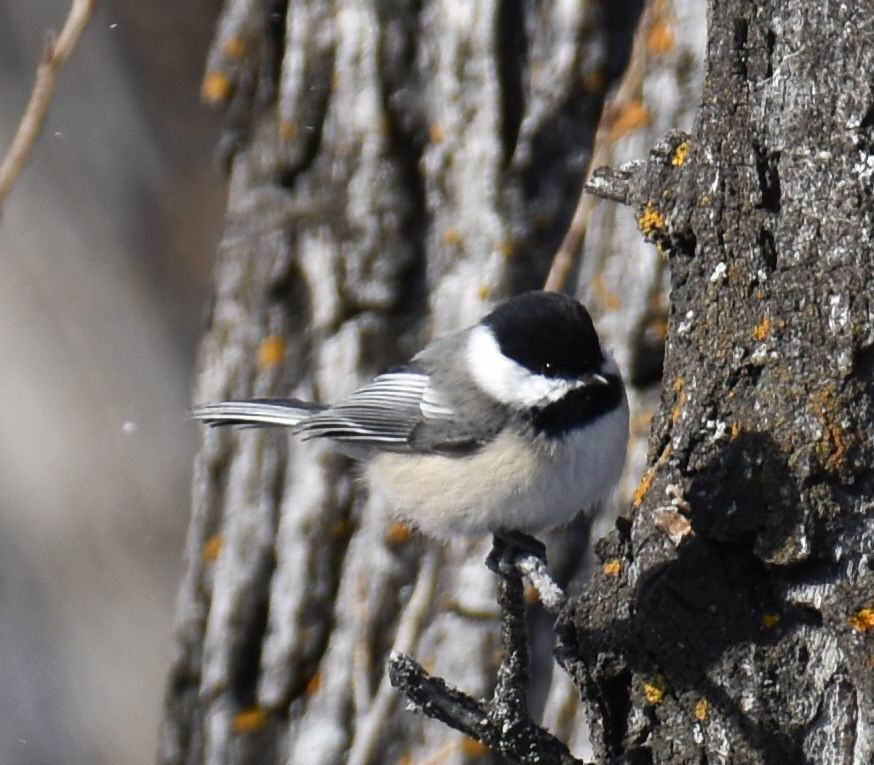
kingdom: Animalia
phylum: Chordata
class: Aves
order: Passeriformes
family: Paridae
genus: Poecile
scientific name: Poecile atricapillus
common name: Black-capped chickadee
